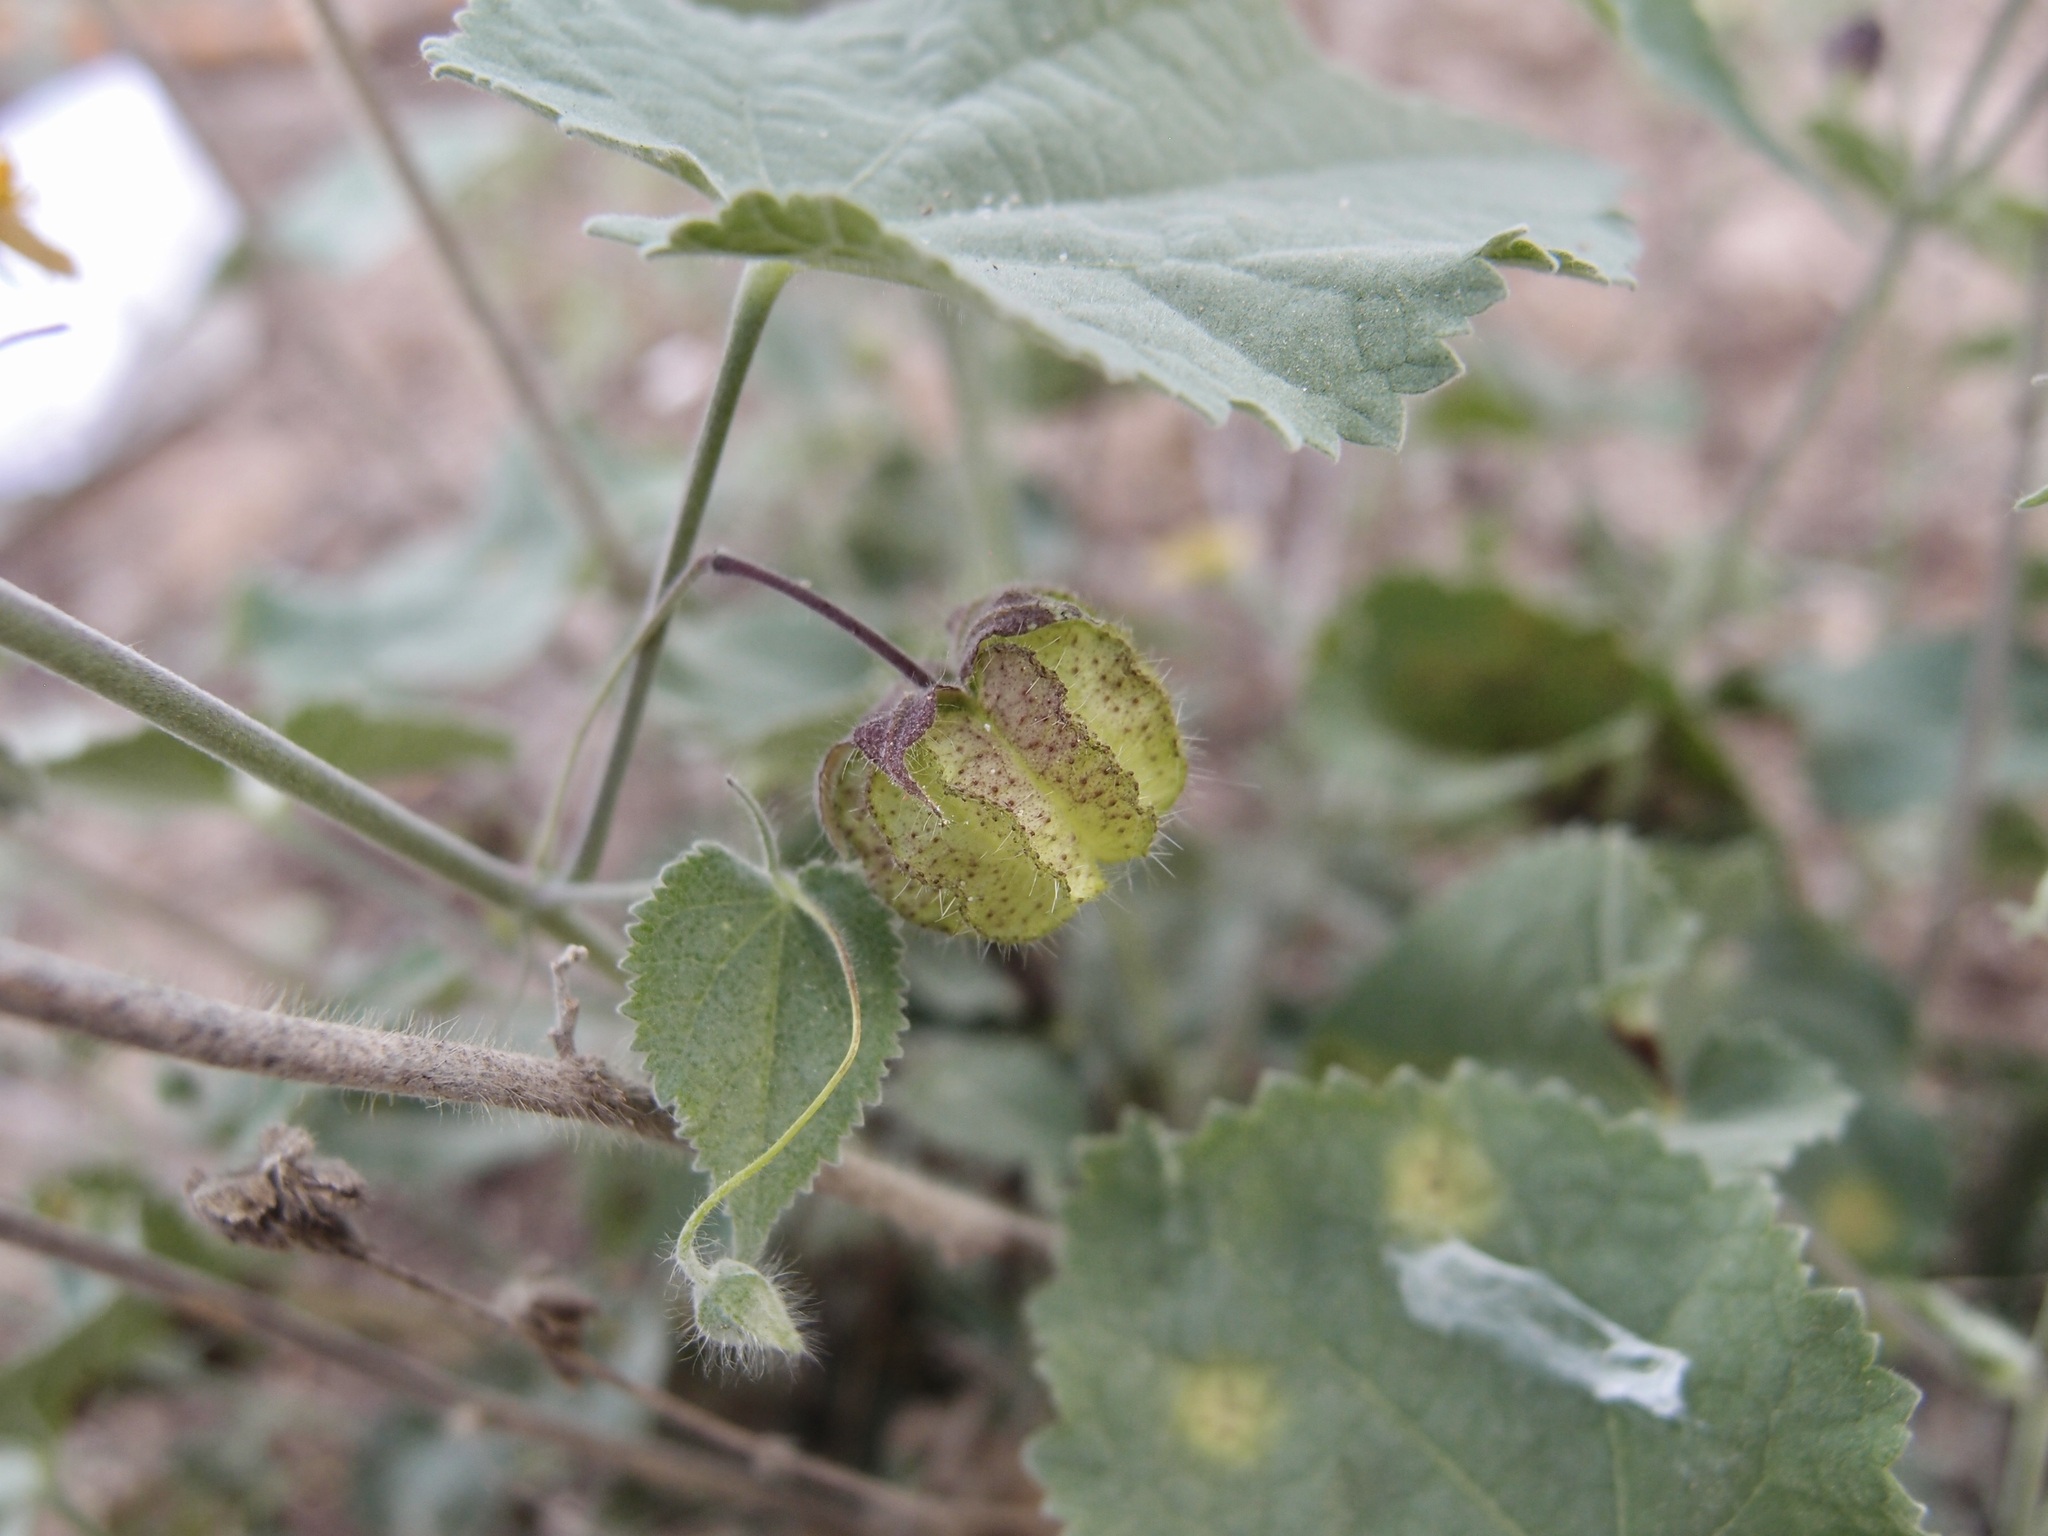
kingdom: Plantae
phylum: Tracheophyta
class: Magnoliopsida
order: Malvales
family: Malvaceae
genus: Herissantia
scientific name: Herissantia crispa
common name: Bladdermallow
